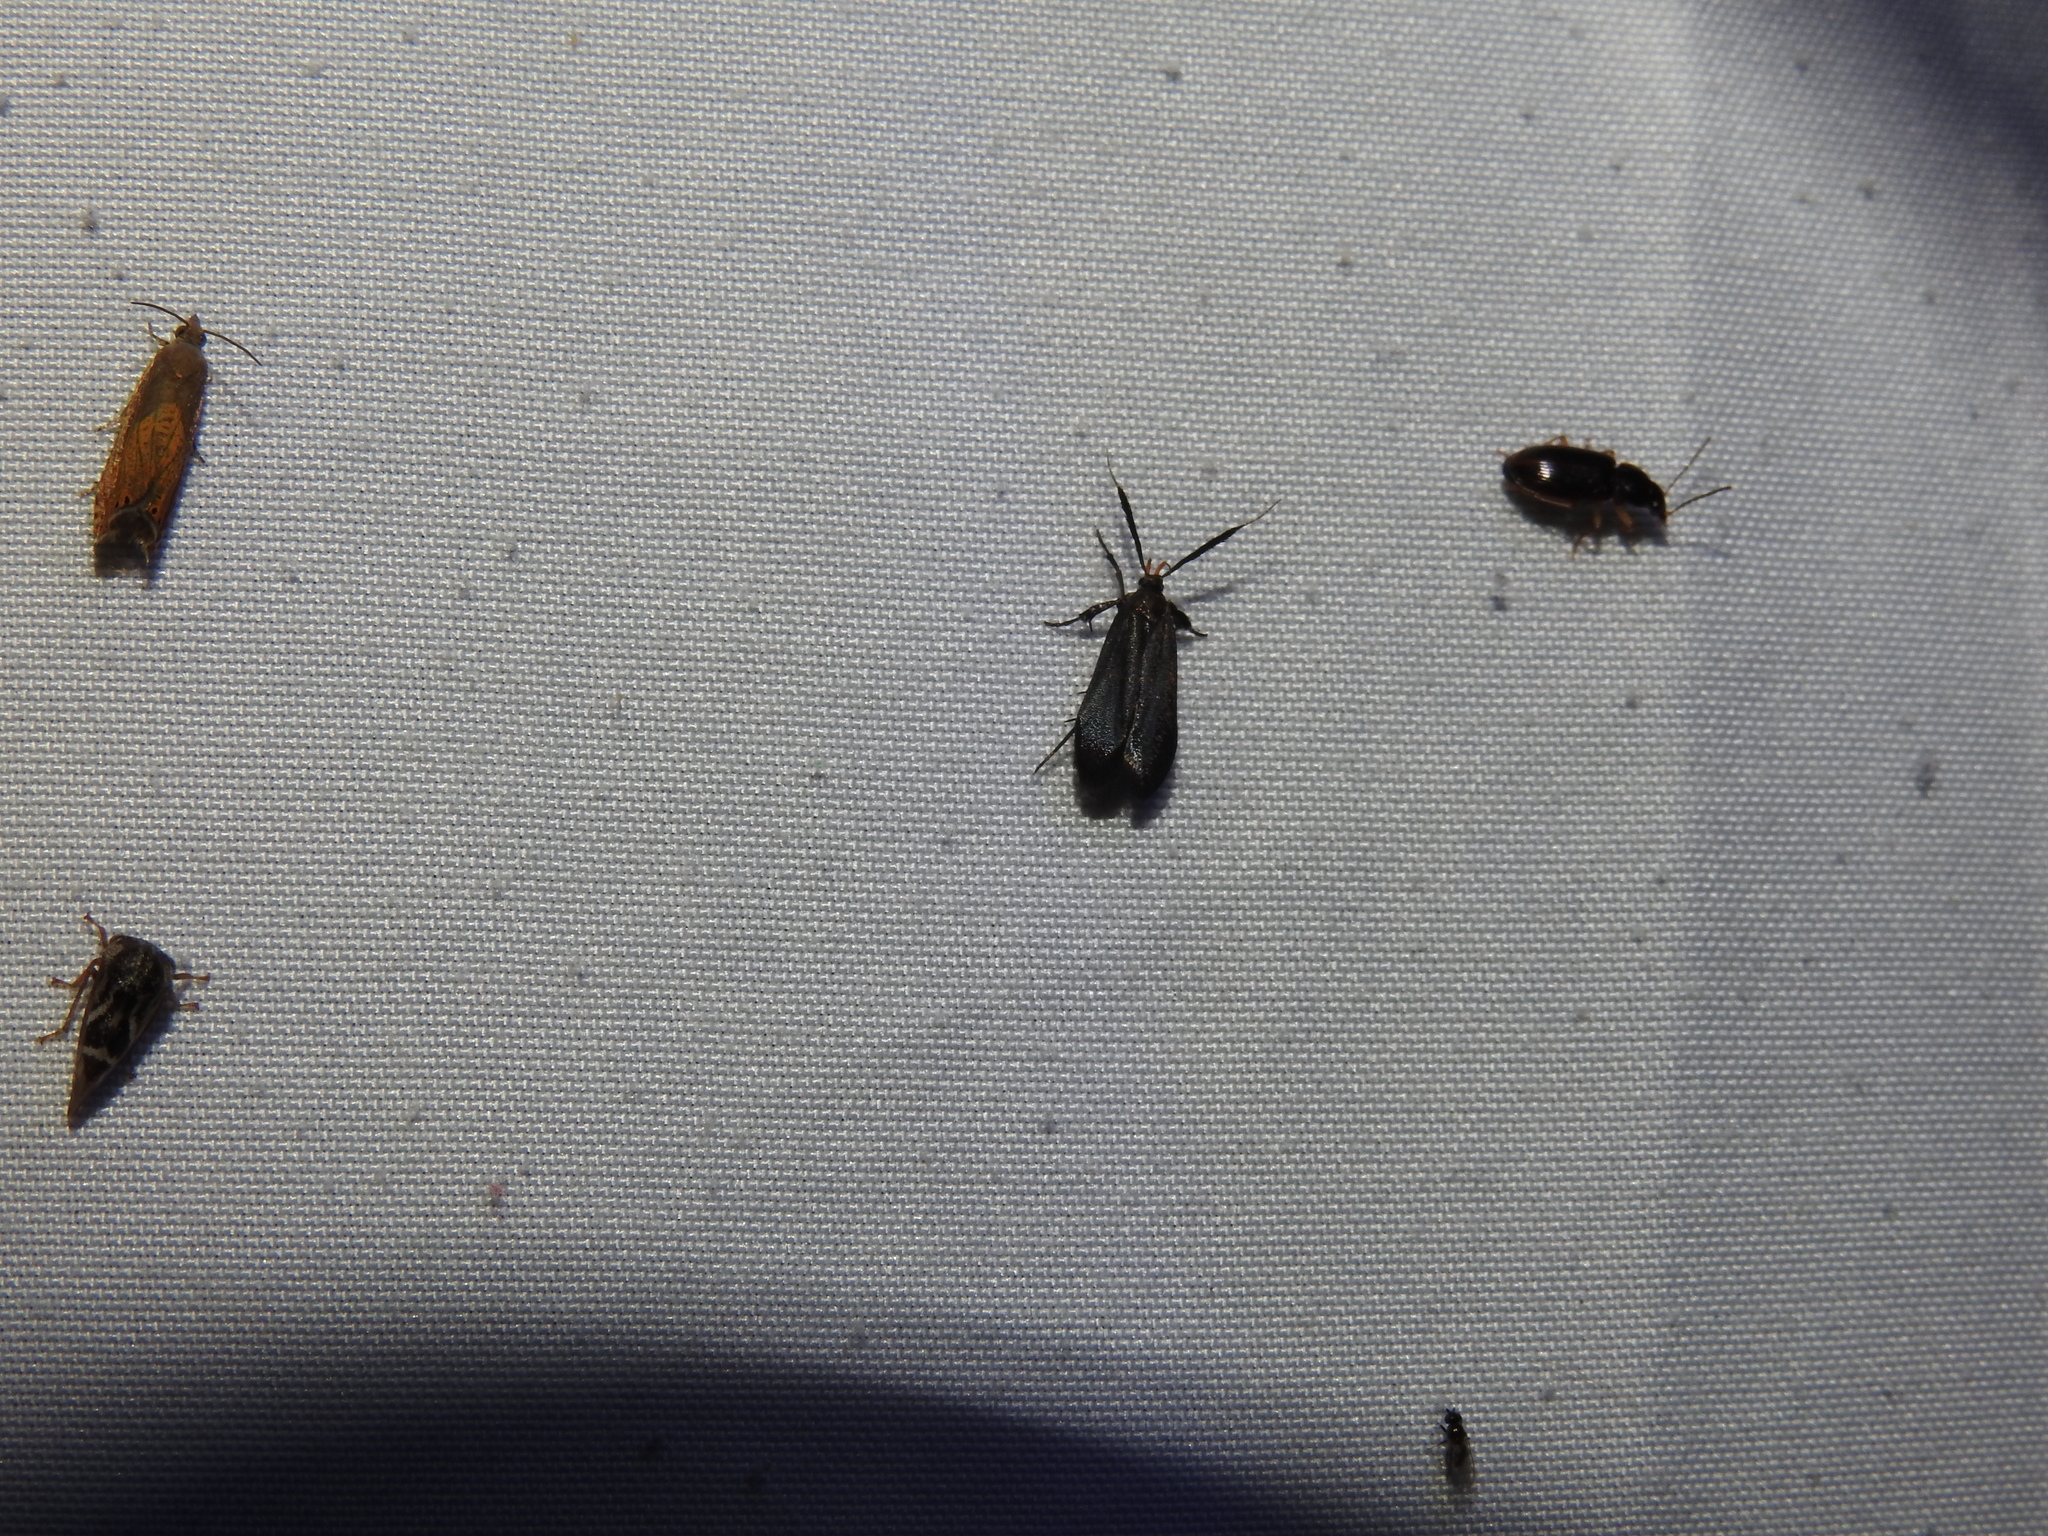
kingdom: Animalia
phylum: Arthropoda
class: Insecta
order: Lepidoptera
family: Gelechiidae
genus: Dichomeris
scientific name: Dichomeris nonstrigella
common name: Little devil moth
